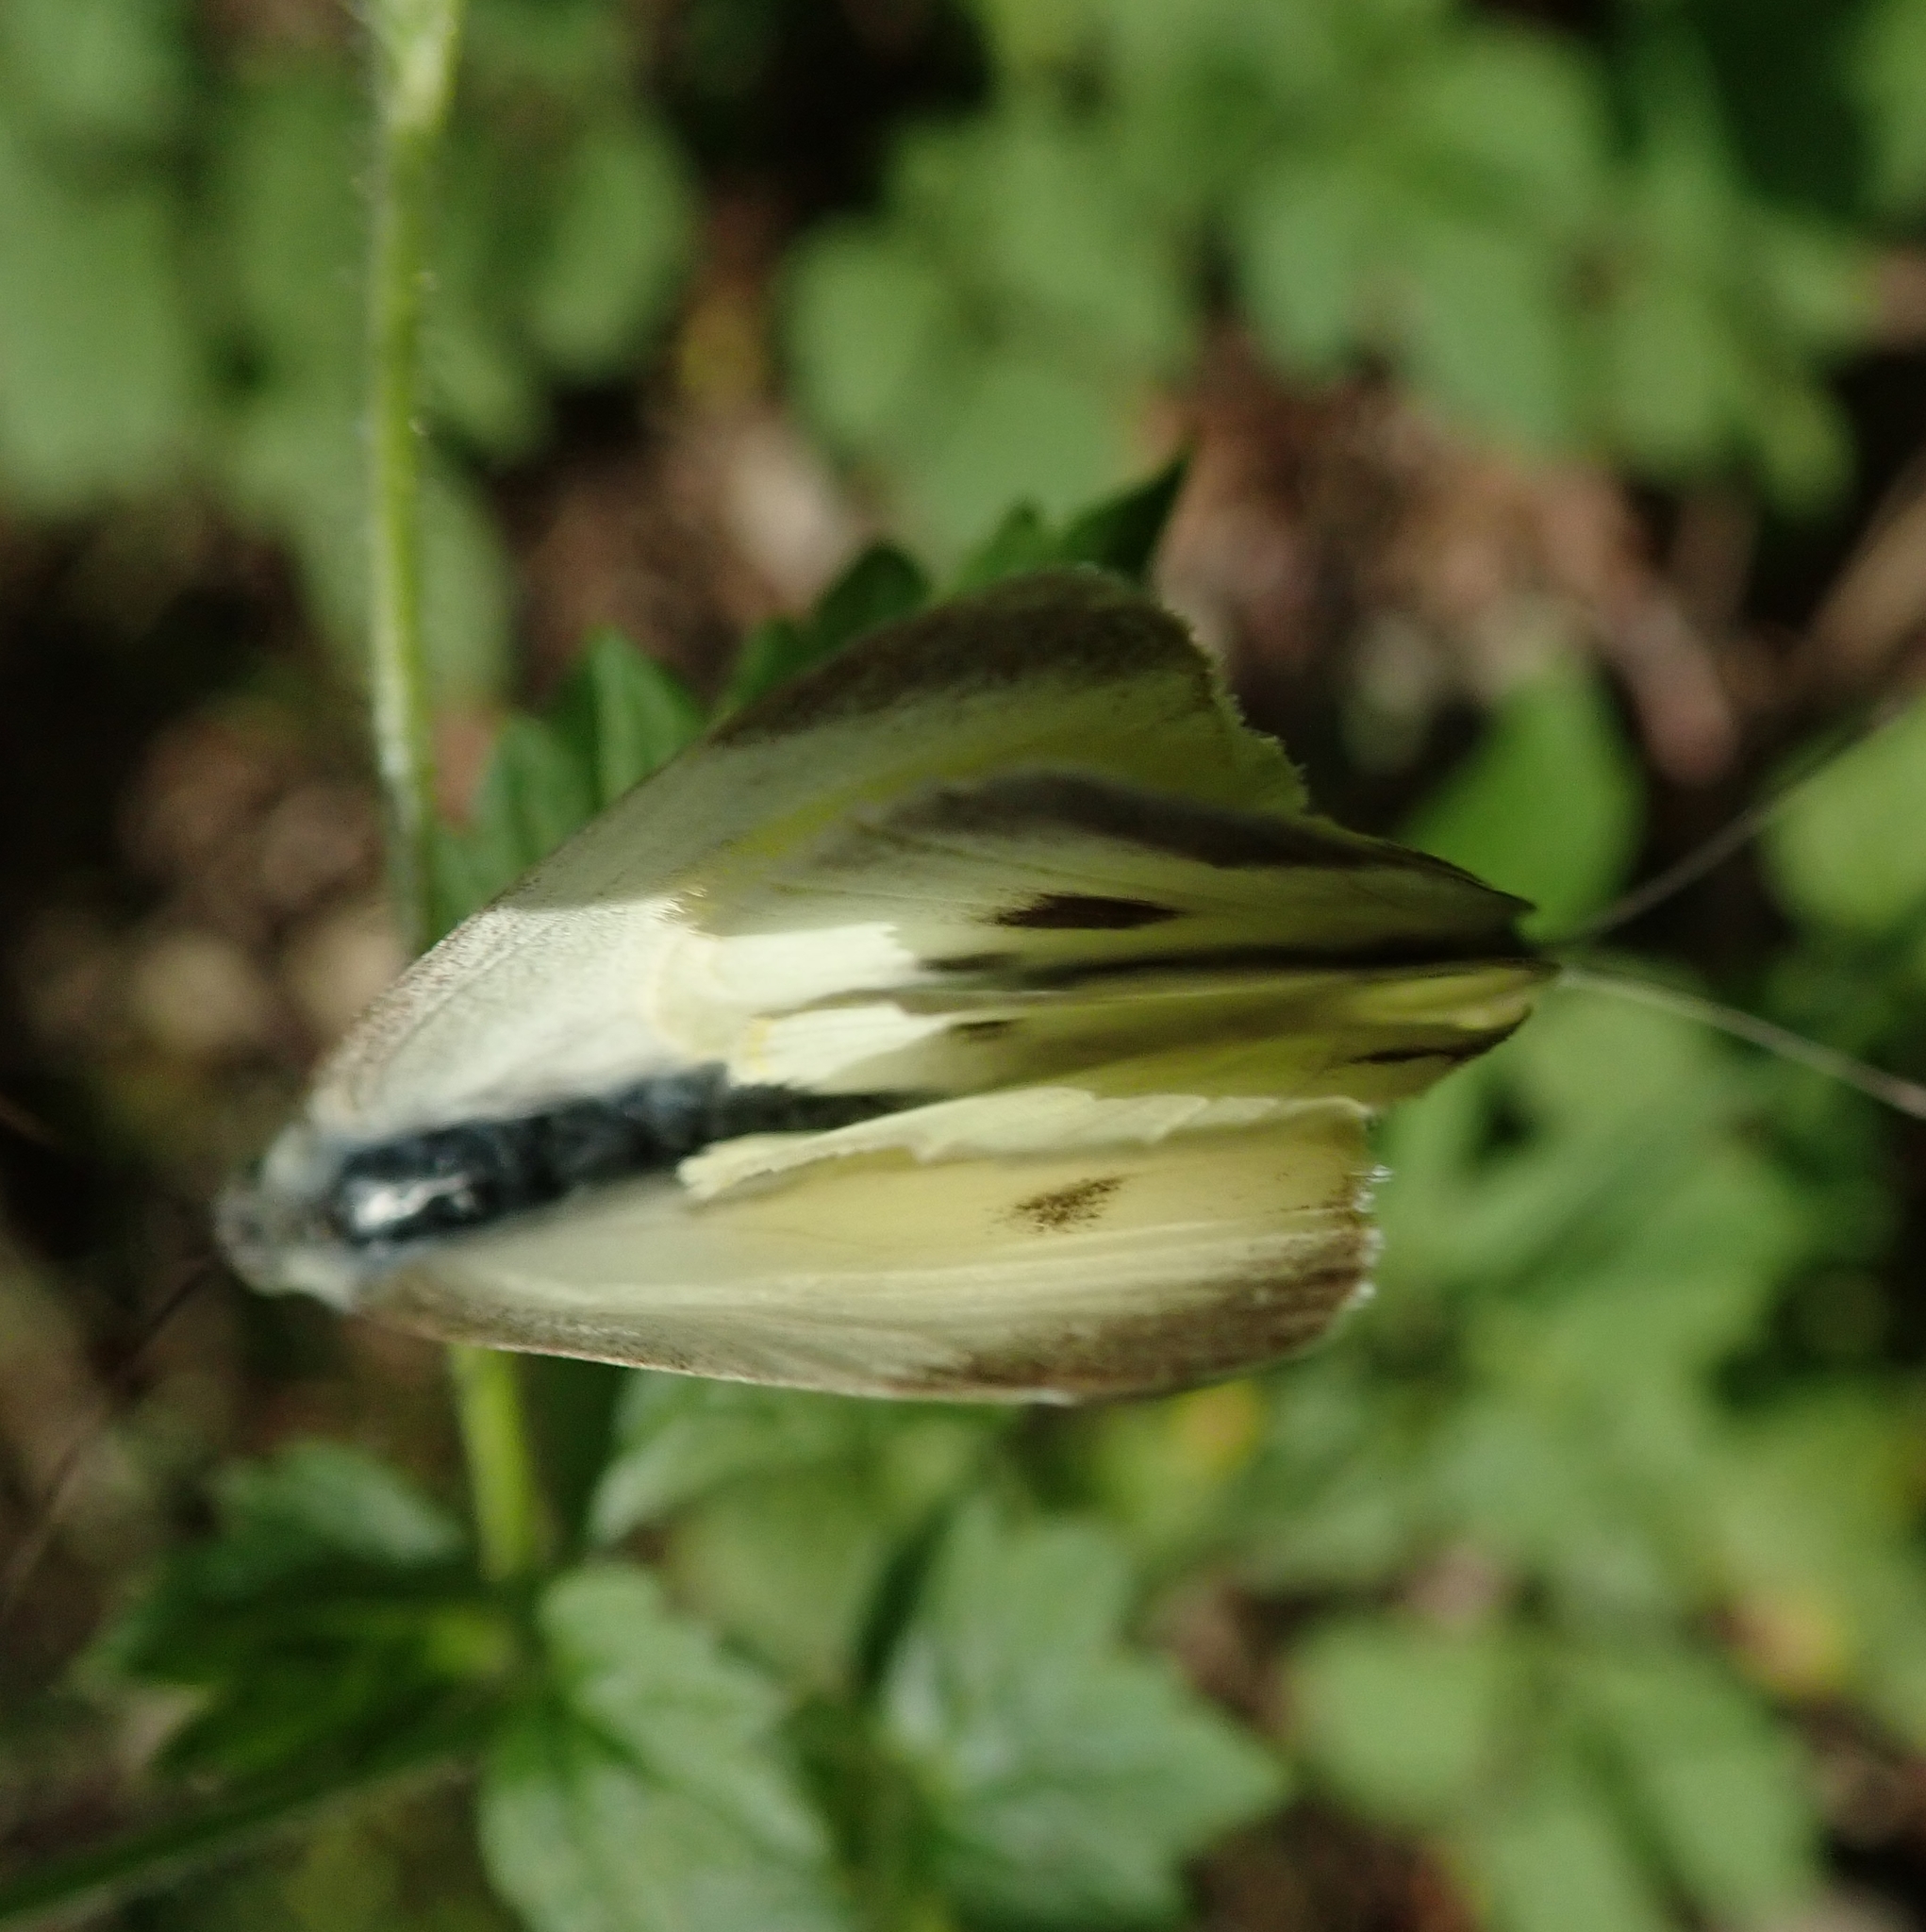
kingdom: Animalia
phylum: Arthropoda
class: Insecta
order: Lepidoptera
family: Pieridae
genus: Pieris
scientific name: Pieris rapae
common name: Small white
